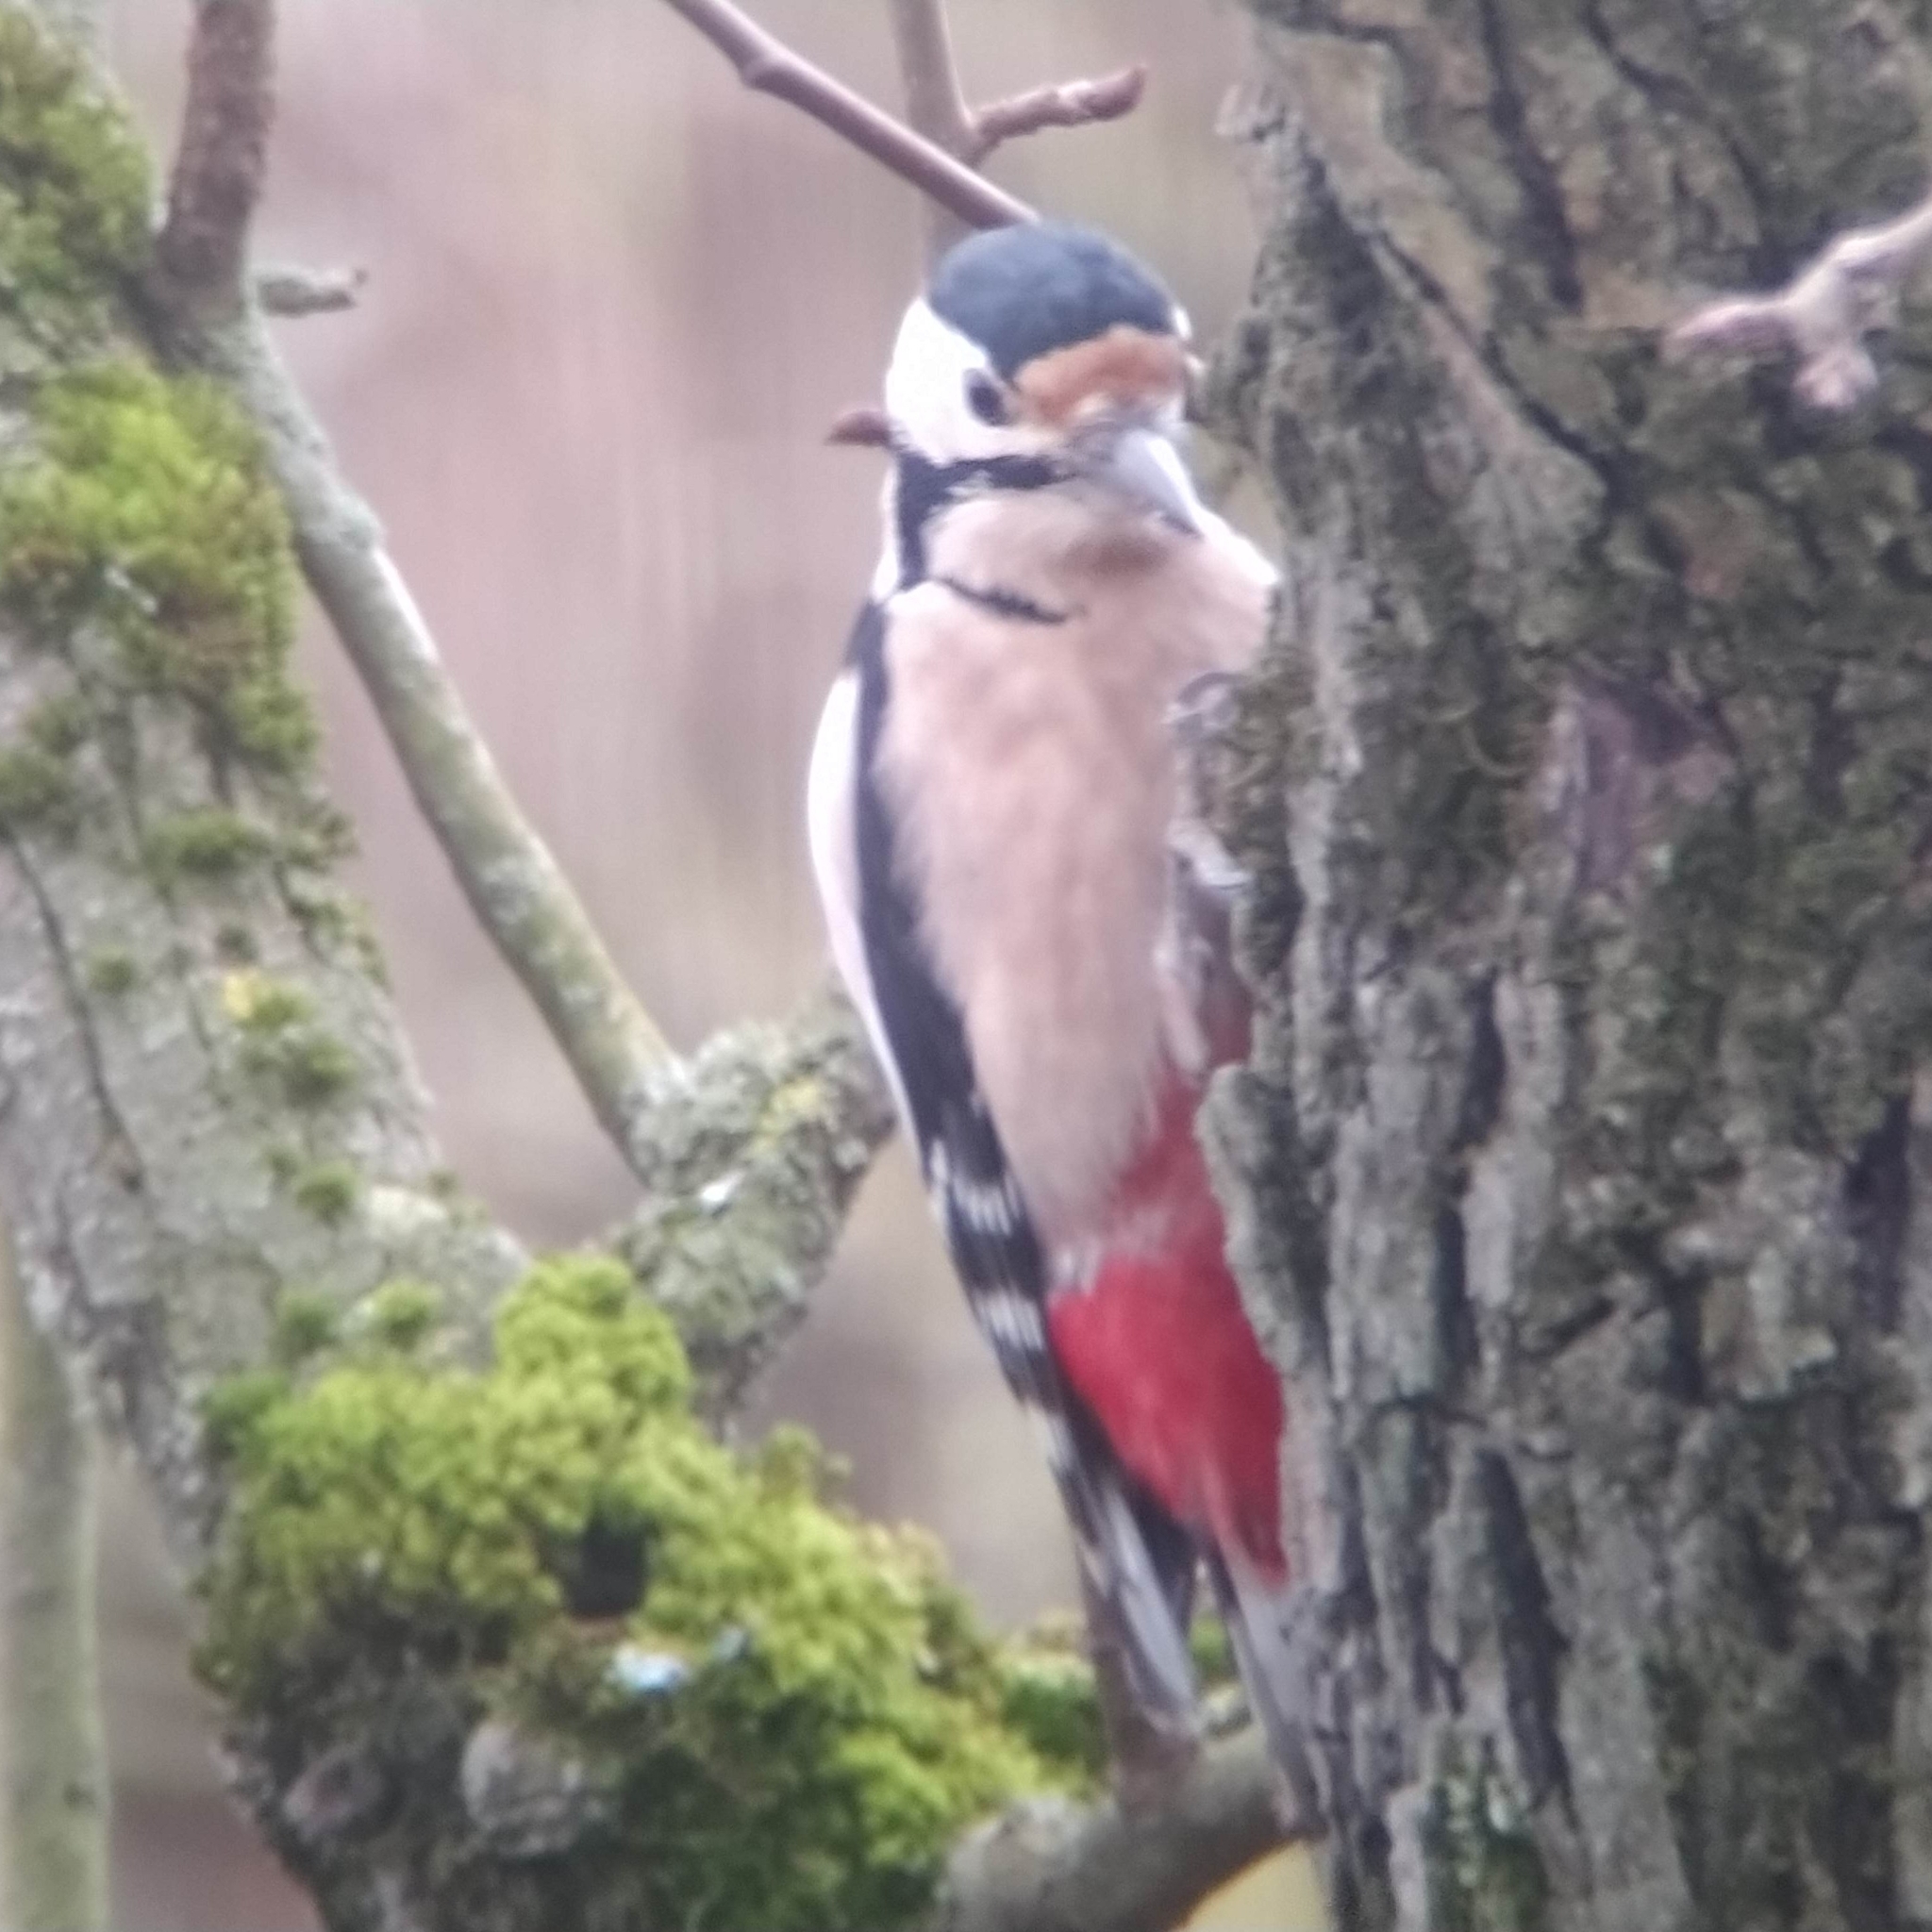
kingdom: Animalia
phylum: Chordata
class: Aves
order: Piciformes
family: Picidae
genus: Dendrocopos
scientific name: Dendrocopos major
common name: Great spotted woodpecker
